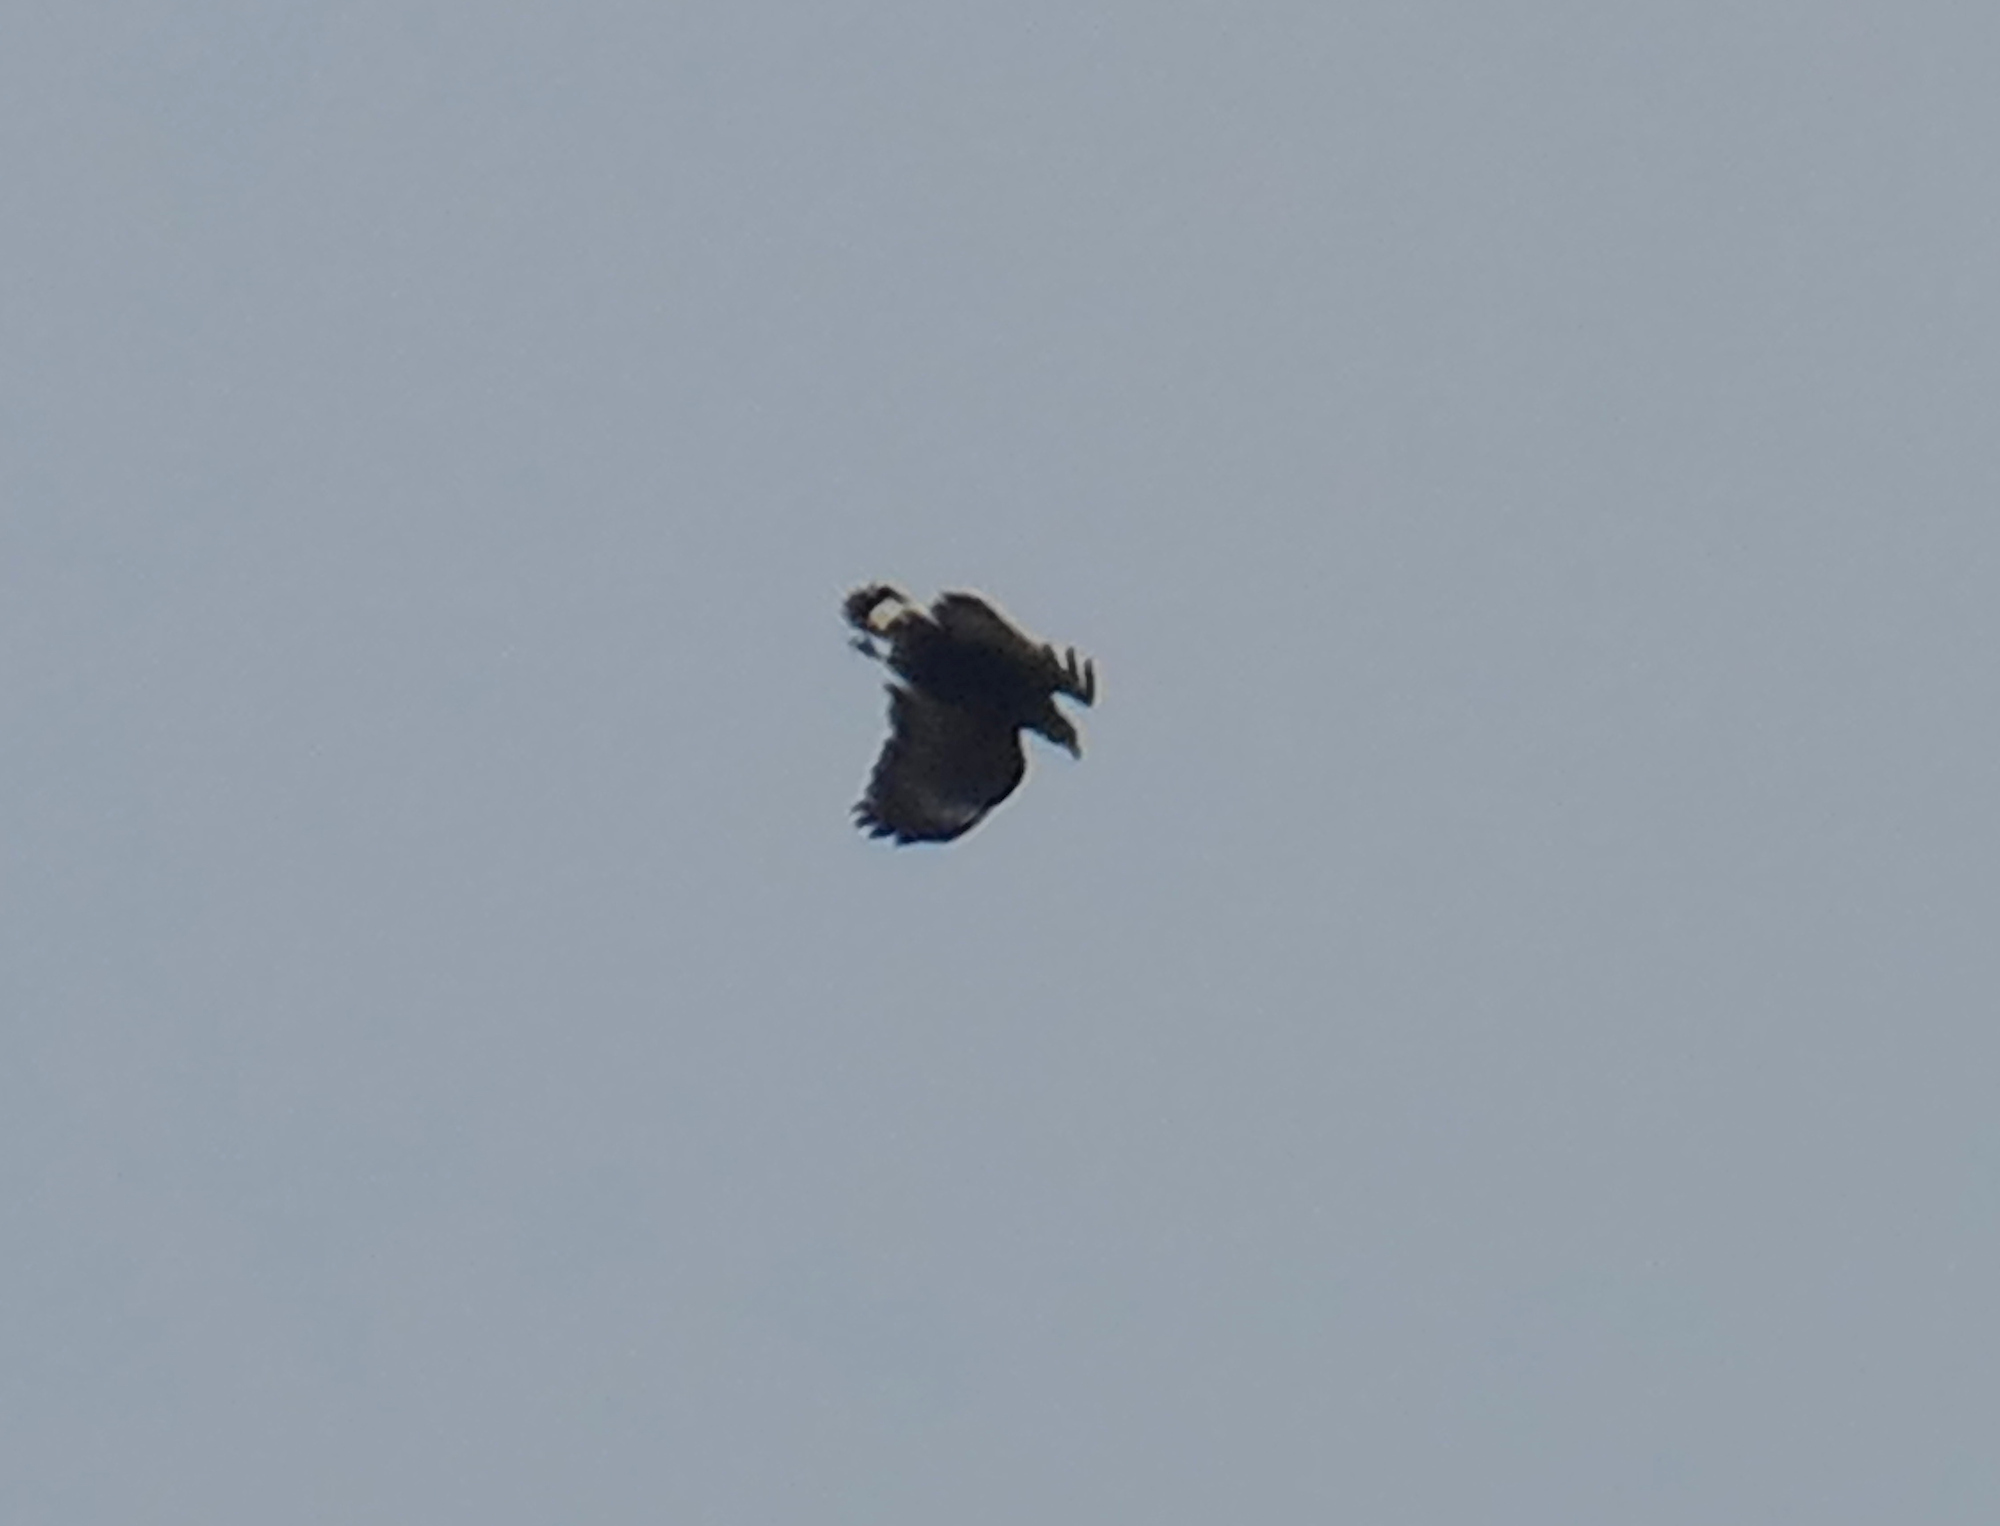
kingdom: Animalia
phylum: Chordata
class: Aves
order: Accipitriformes
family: Accipitridae
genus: Buteogallus
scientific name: Buteogallus anthracinus
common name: Common black hawk
